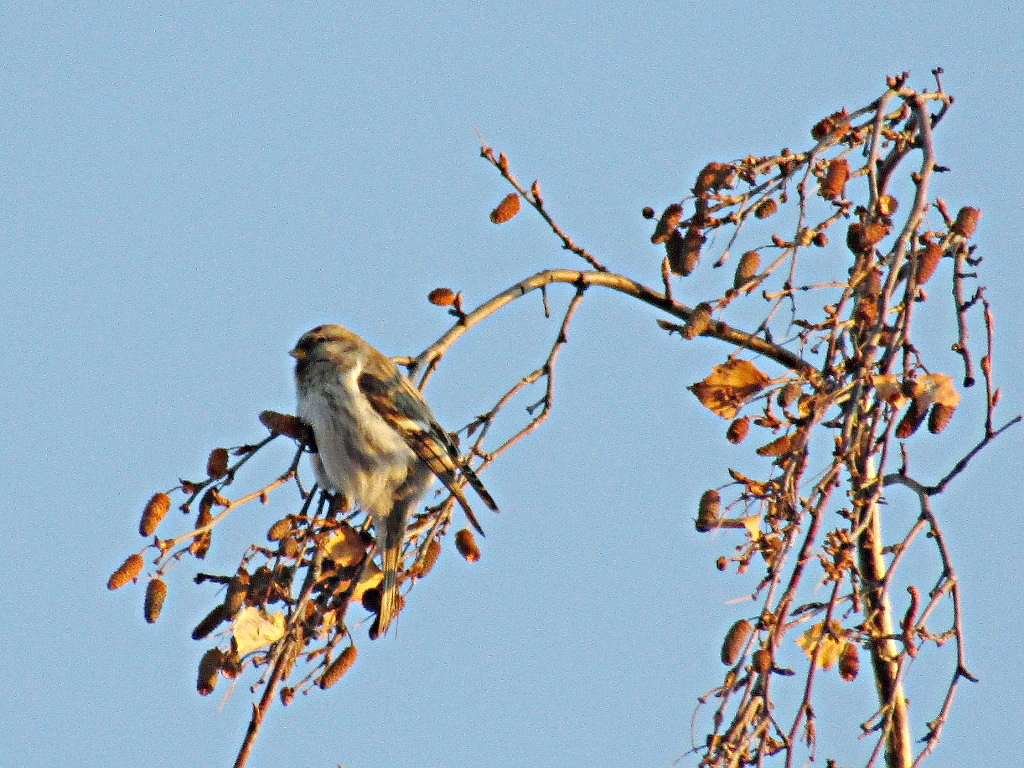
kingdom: Animalia
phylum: Chordata
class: Aves
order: Passeriformes
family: Fringillidae
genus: Acanthis
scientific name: Acanthis flammea
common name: Common redpoll
